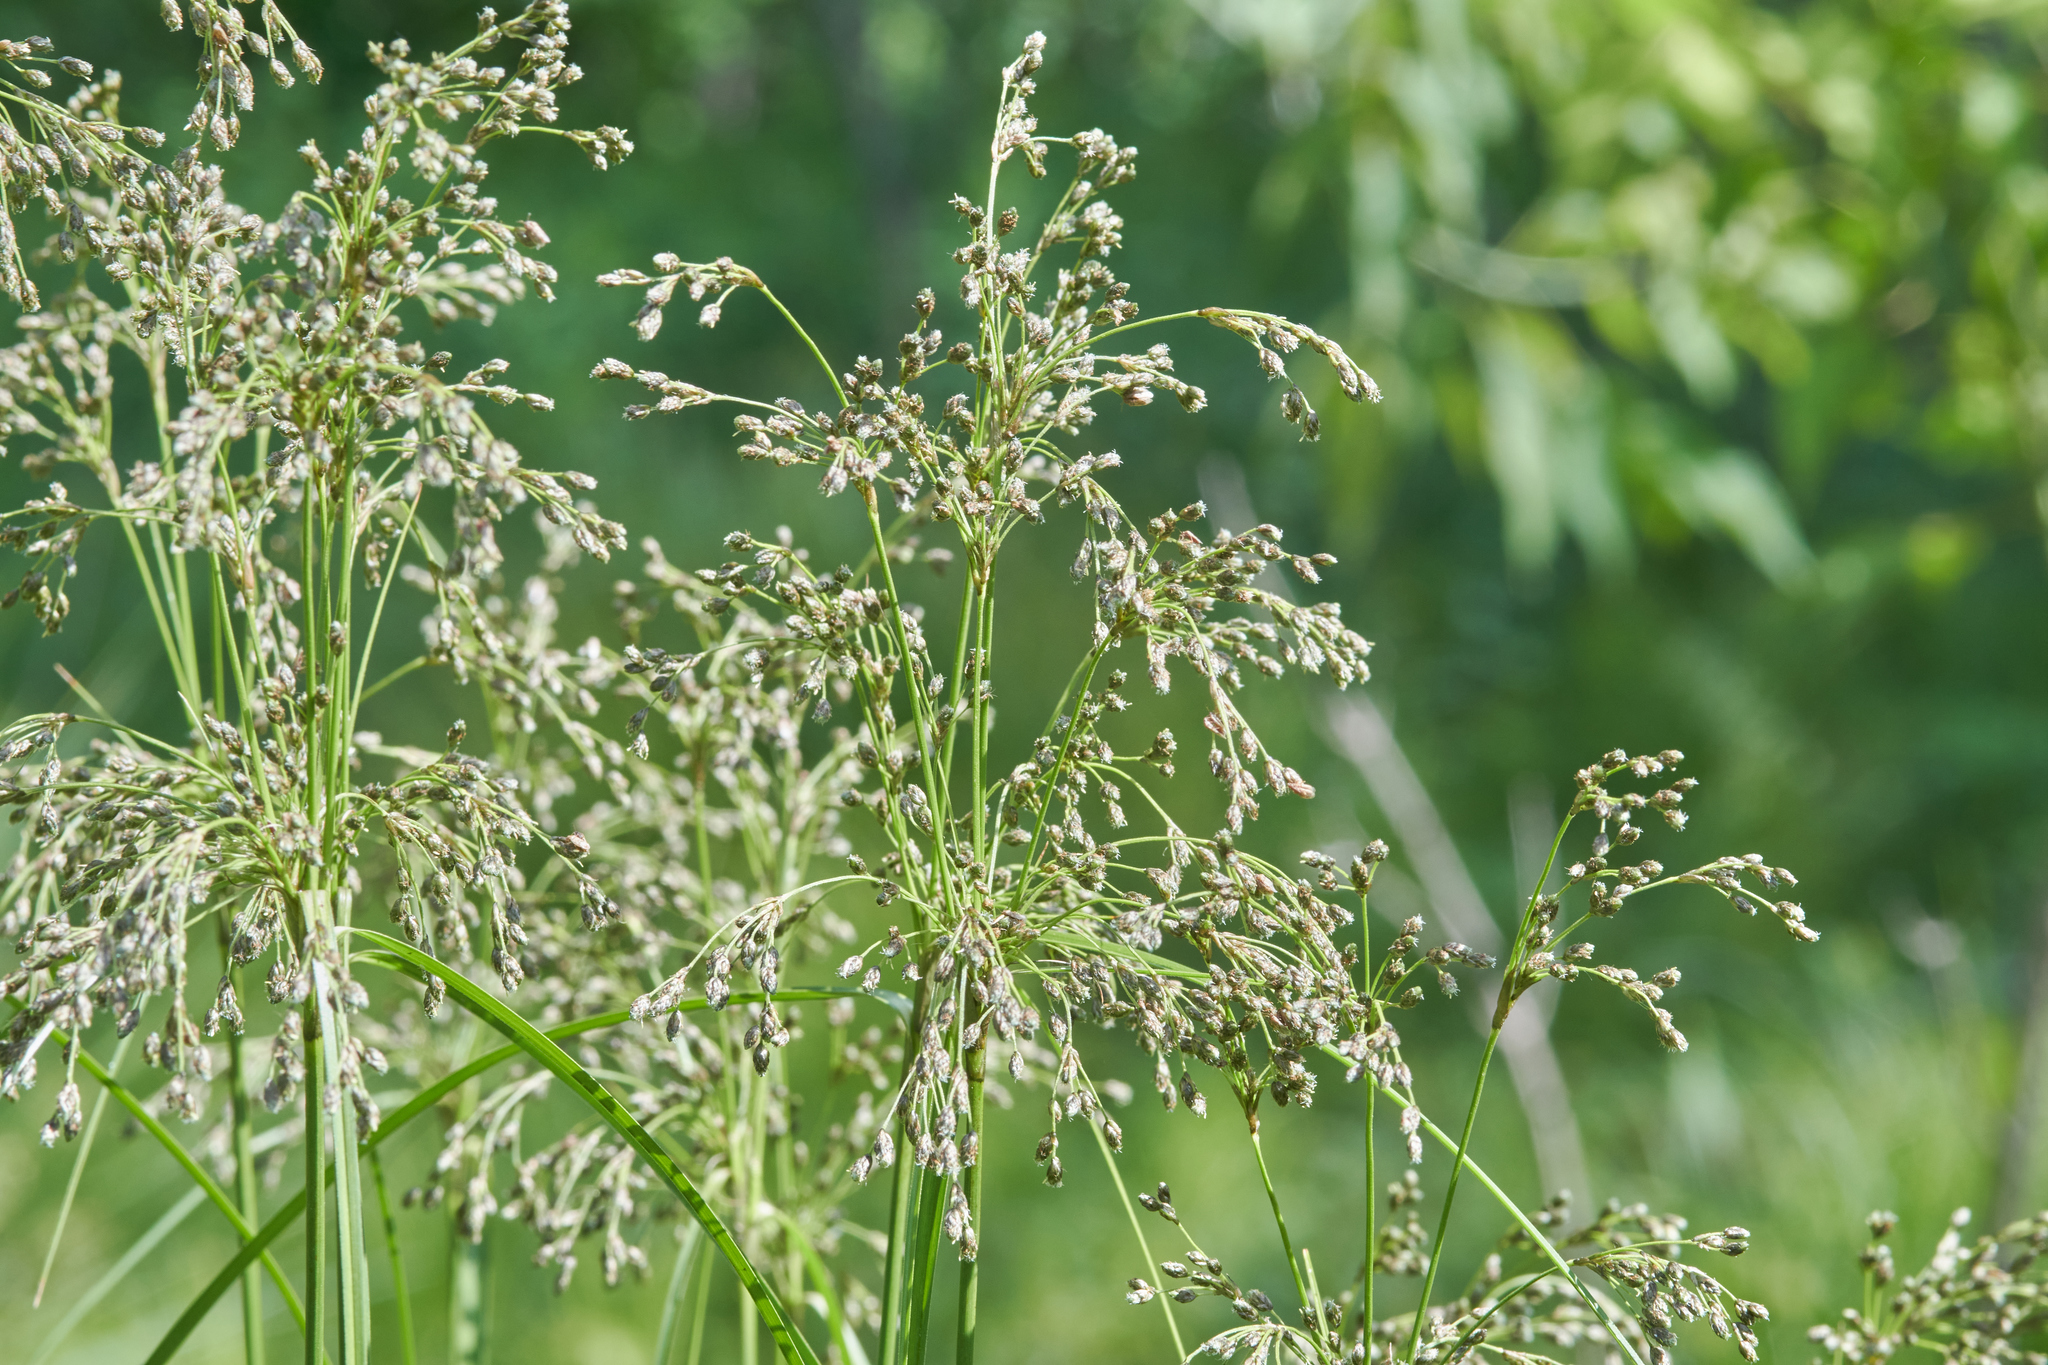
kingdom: Plantae
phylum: Tracheophyta
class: Liliopsida
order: Poales
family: Cyperaceae
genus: Scirpus
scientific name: Scirpus cyperinus
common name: Black-sheathed bulrush
